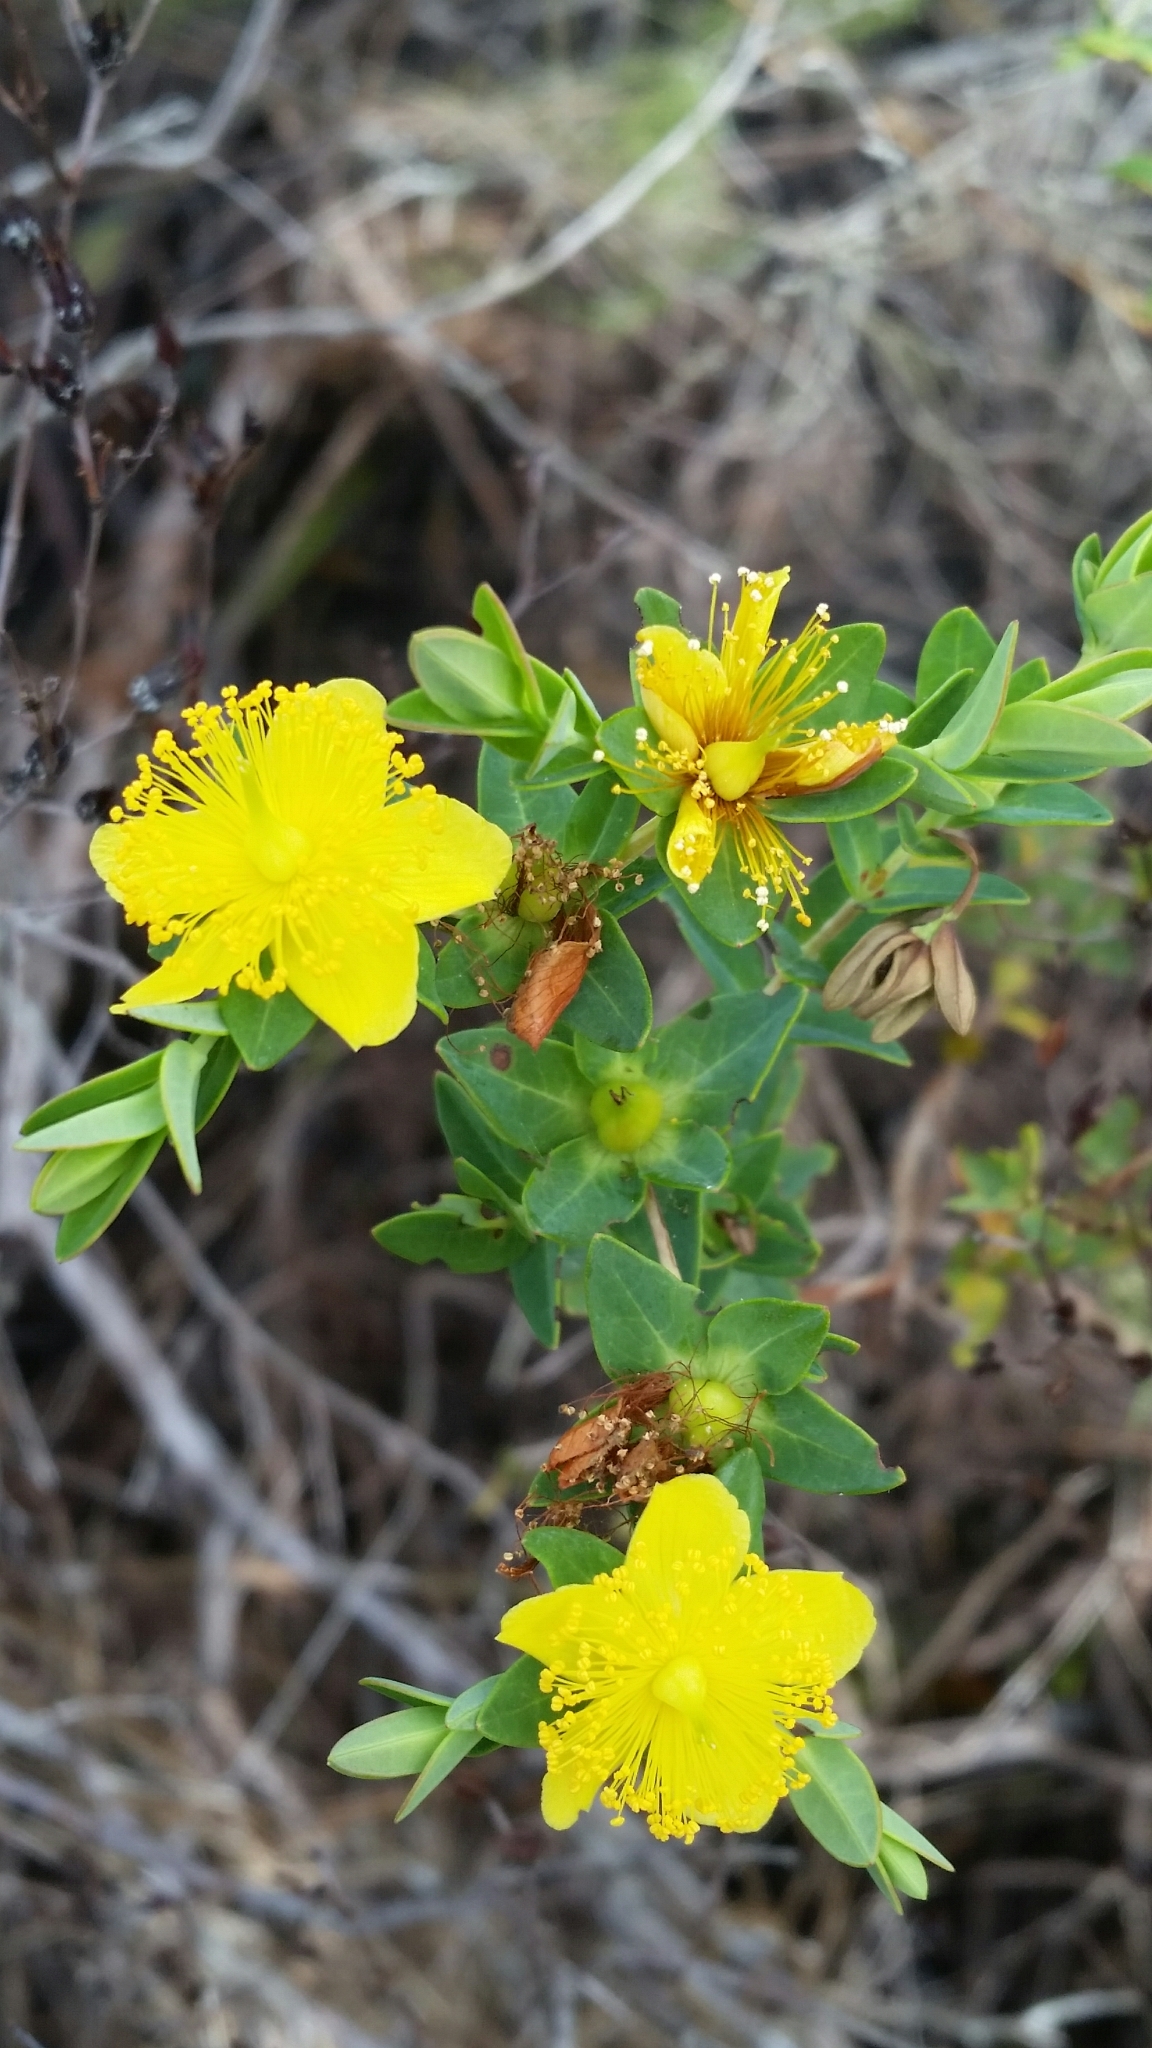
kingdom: Plantae
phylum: Tracheophyta
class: Magnoliopsida
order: Malpighiales
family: Hypericaceae
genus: Hypericum
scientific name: Hypericum myrtifolium
